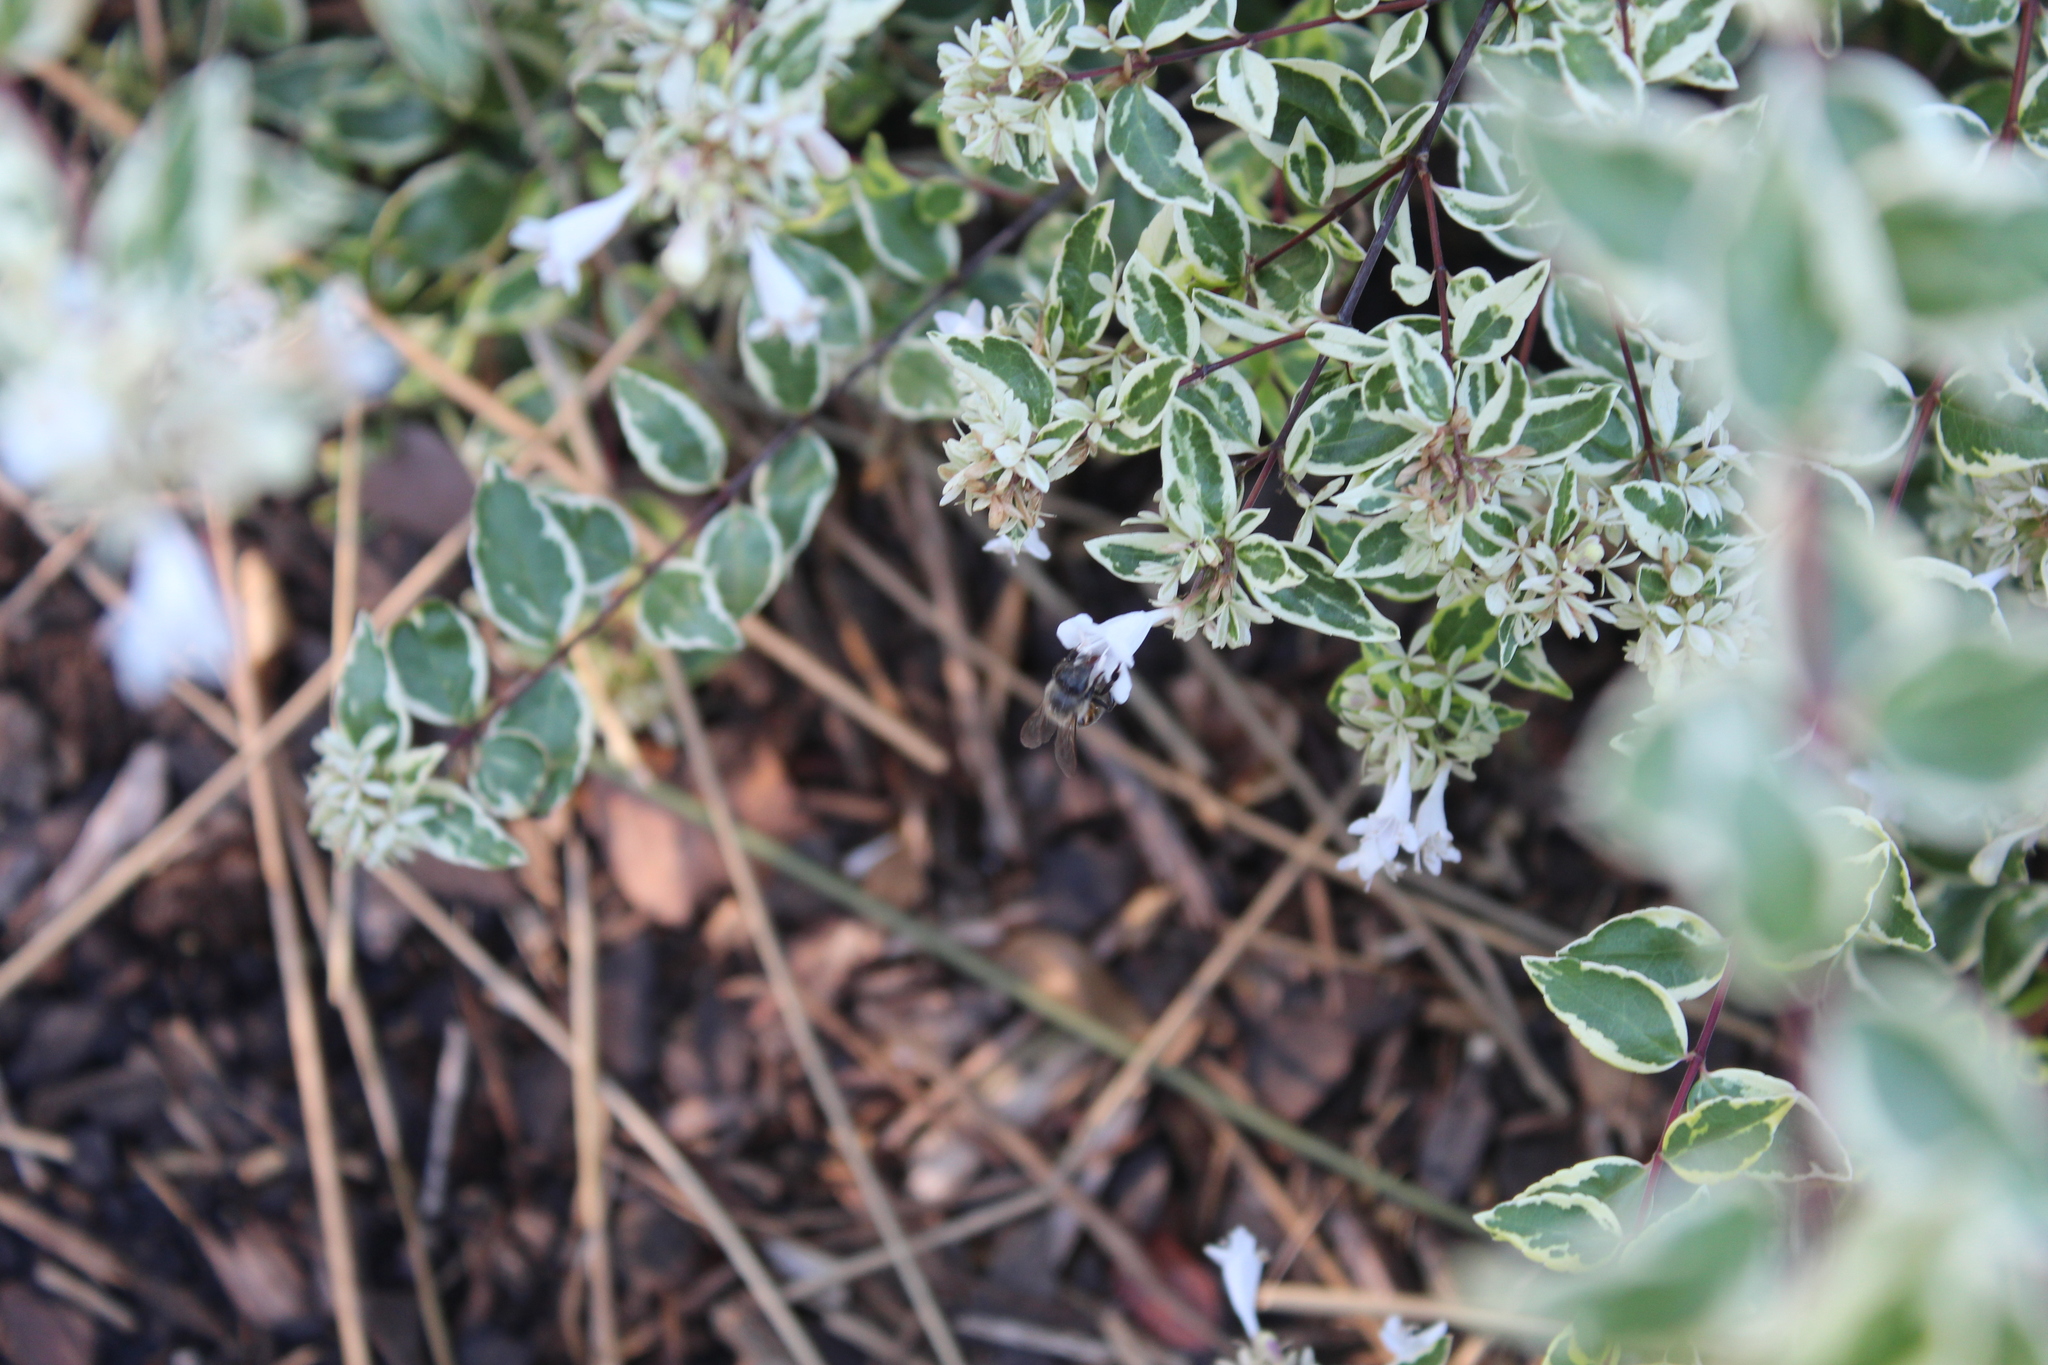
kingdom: Animalia
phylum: Arthropoda
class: Insecta
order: Hymenoptera
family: Apidae
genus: Apis
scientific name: Apis mellifera
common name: Honey bee
